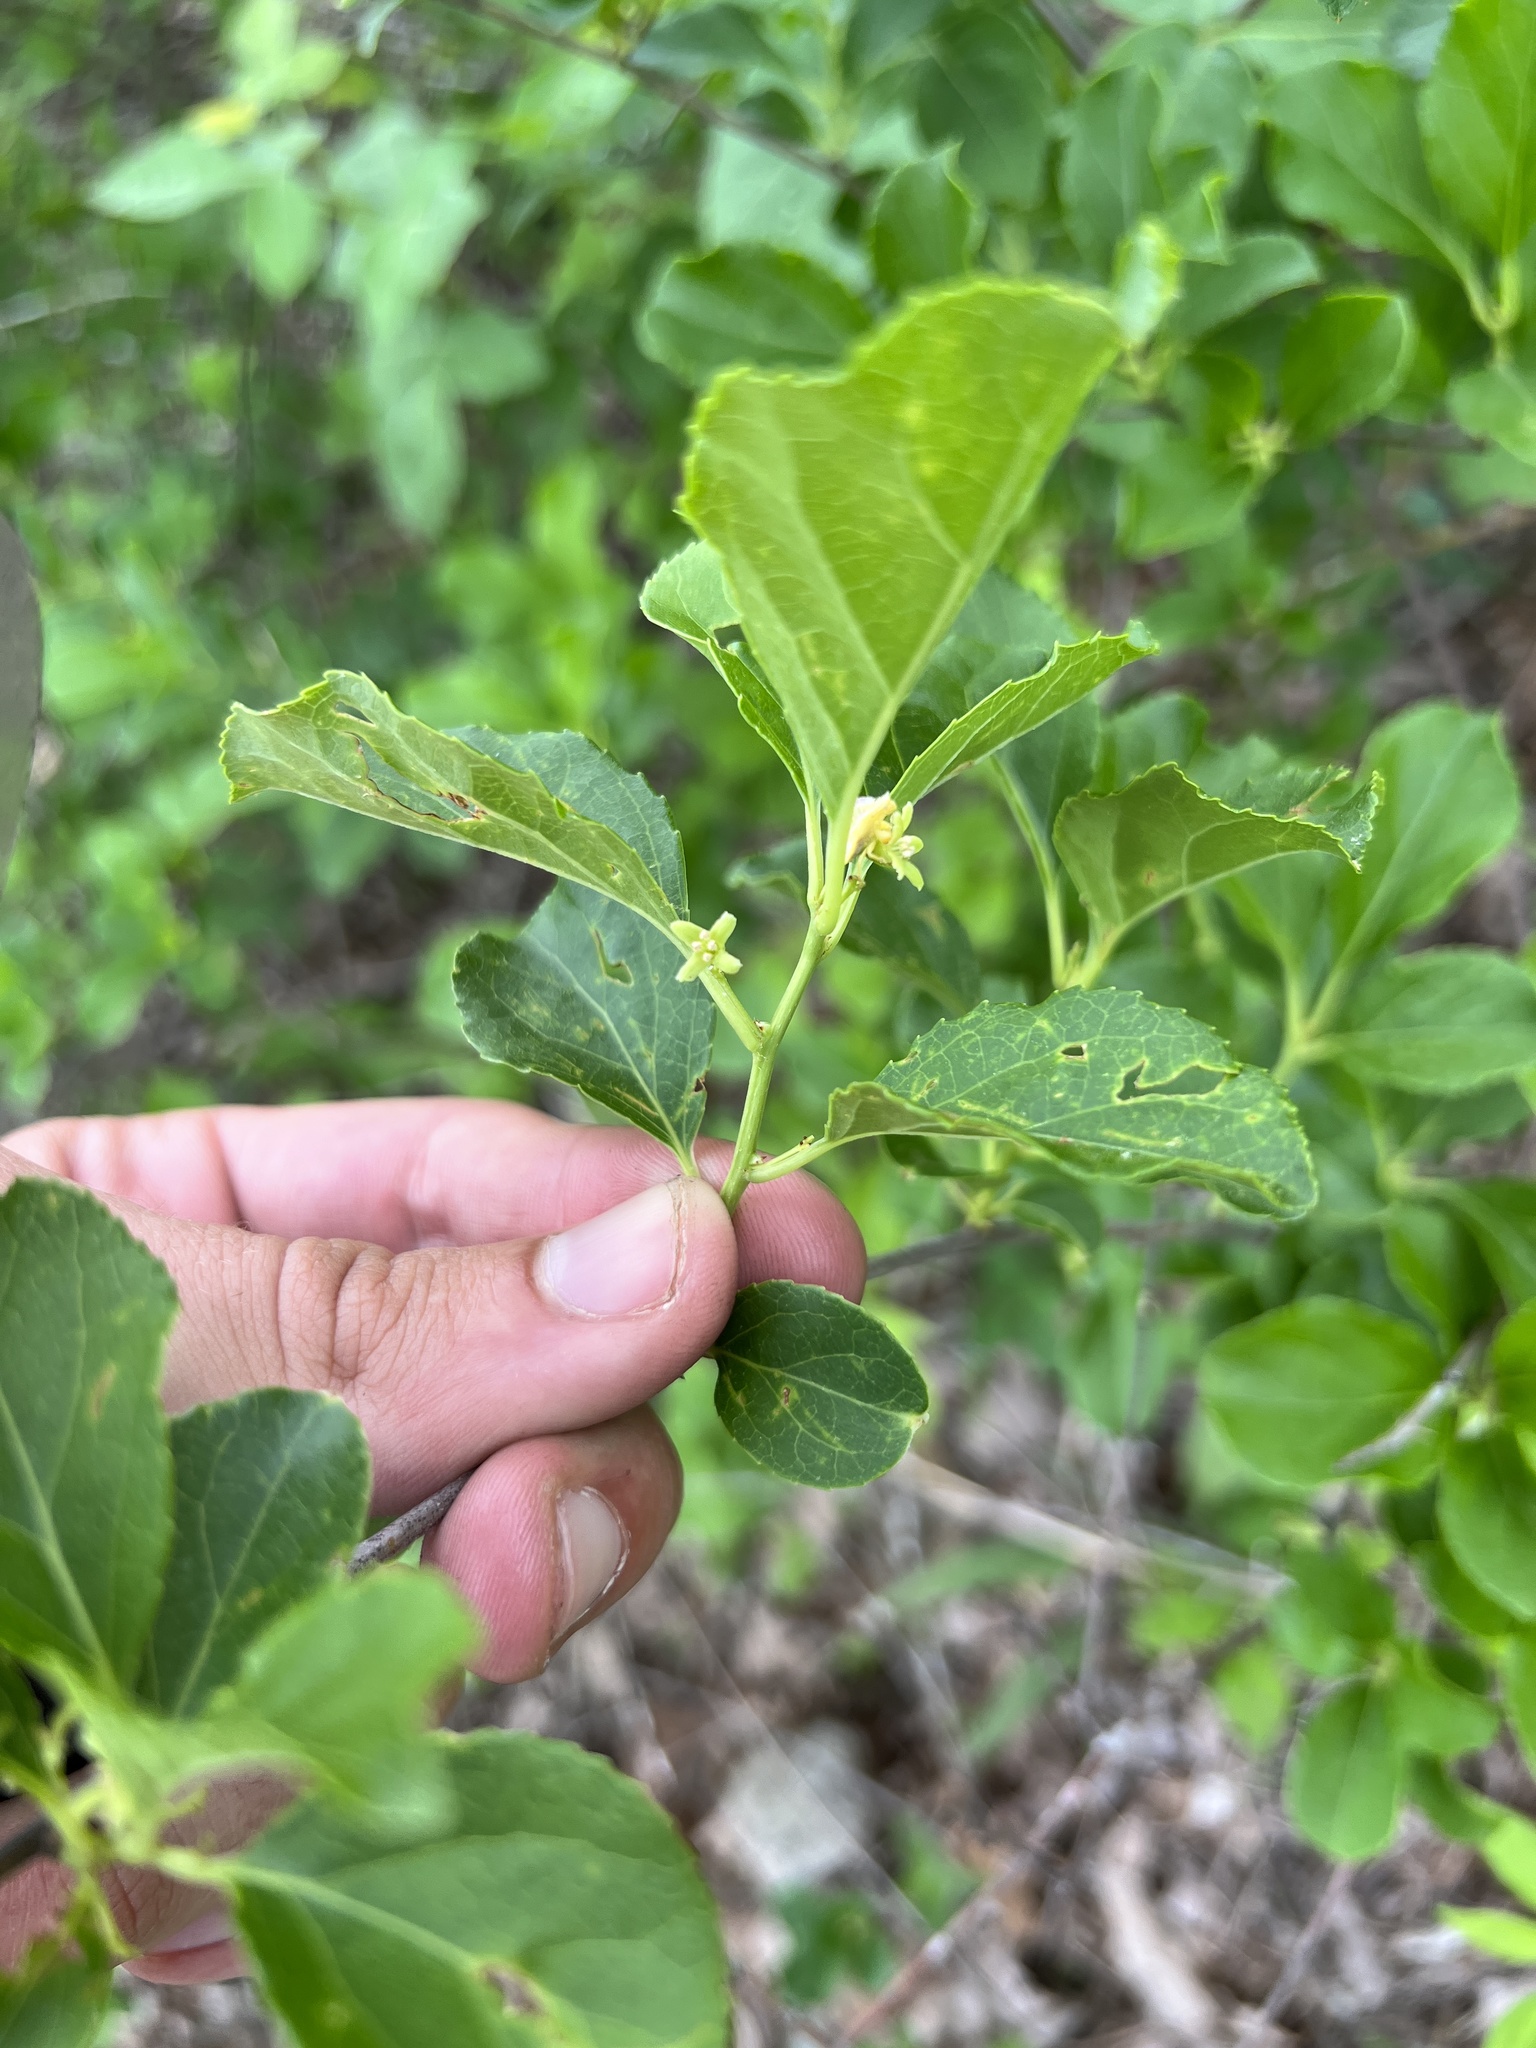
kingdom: Plantae
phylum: Tracheophyta
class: Magnoliopsida
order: Celastrales
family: Celastraceae
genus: Celastrus
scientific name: Celastrus orbiculatus
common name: Oriental bittersweet
